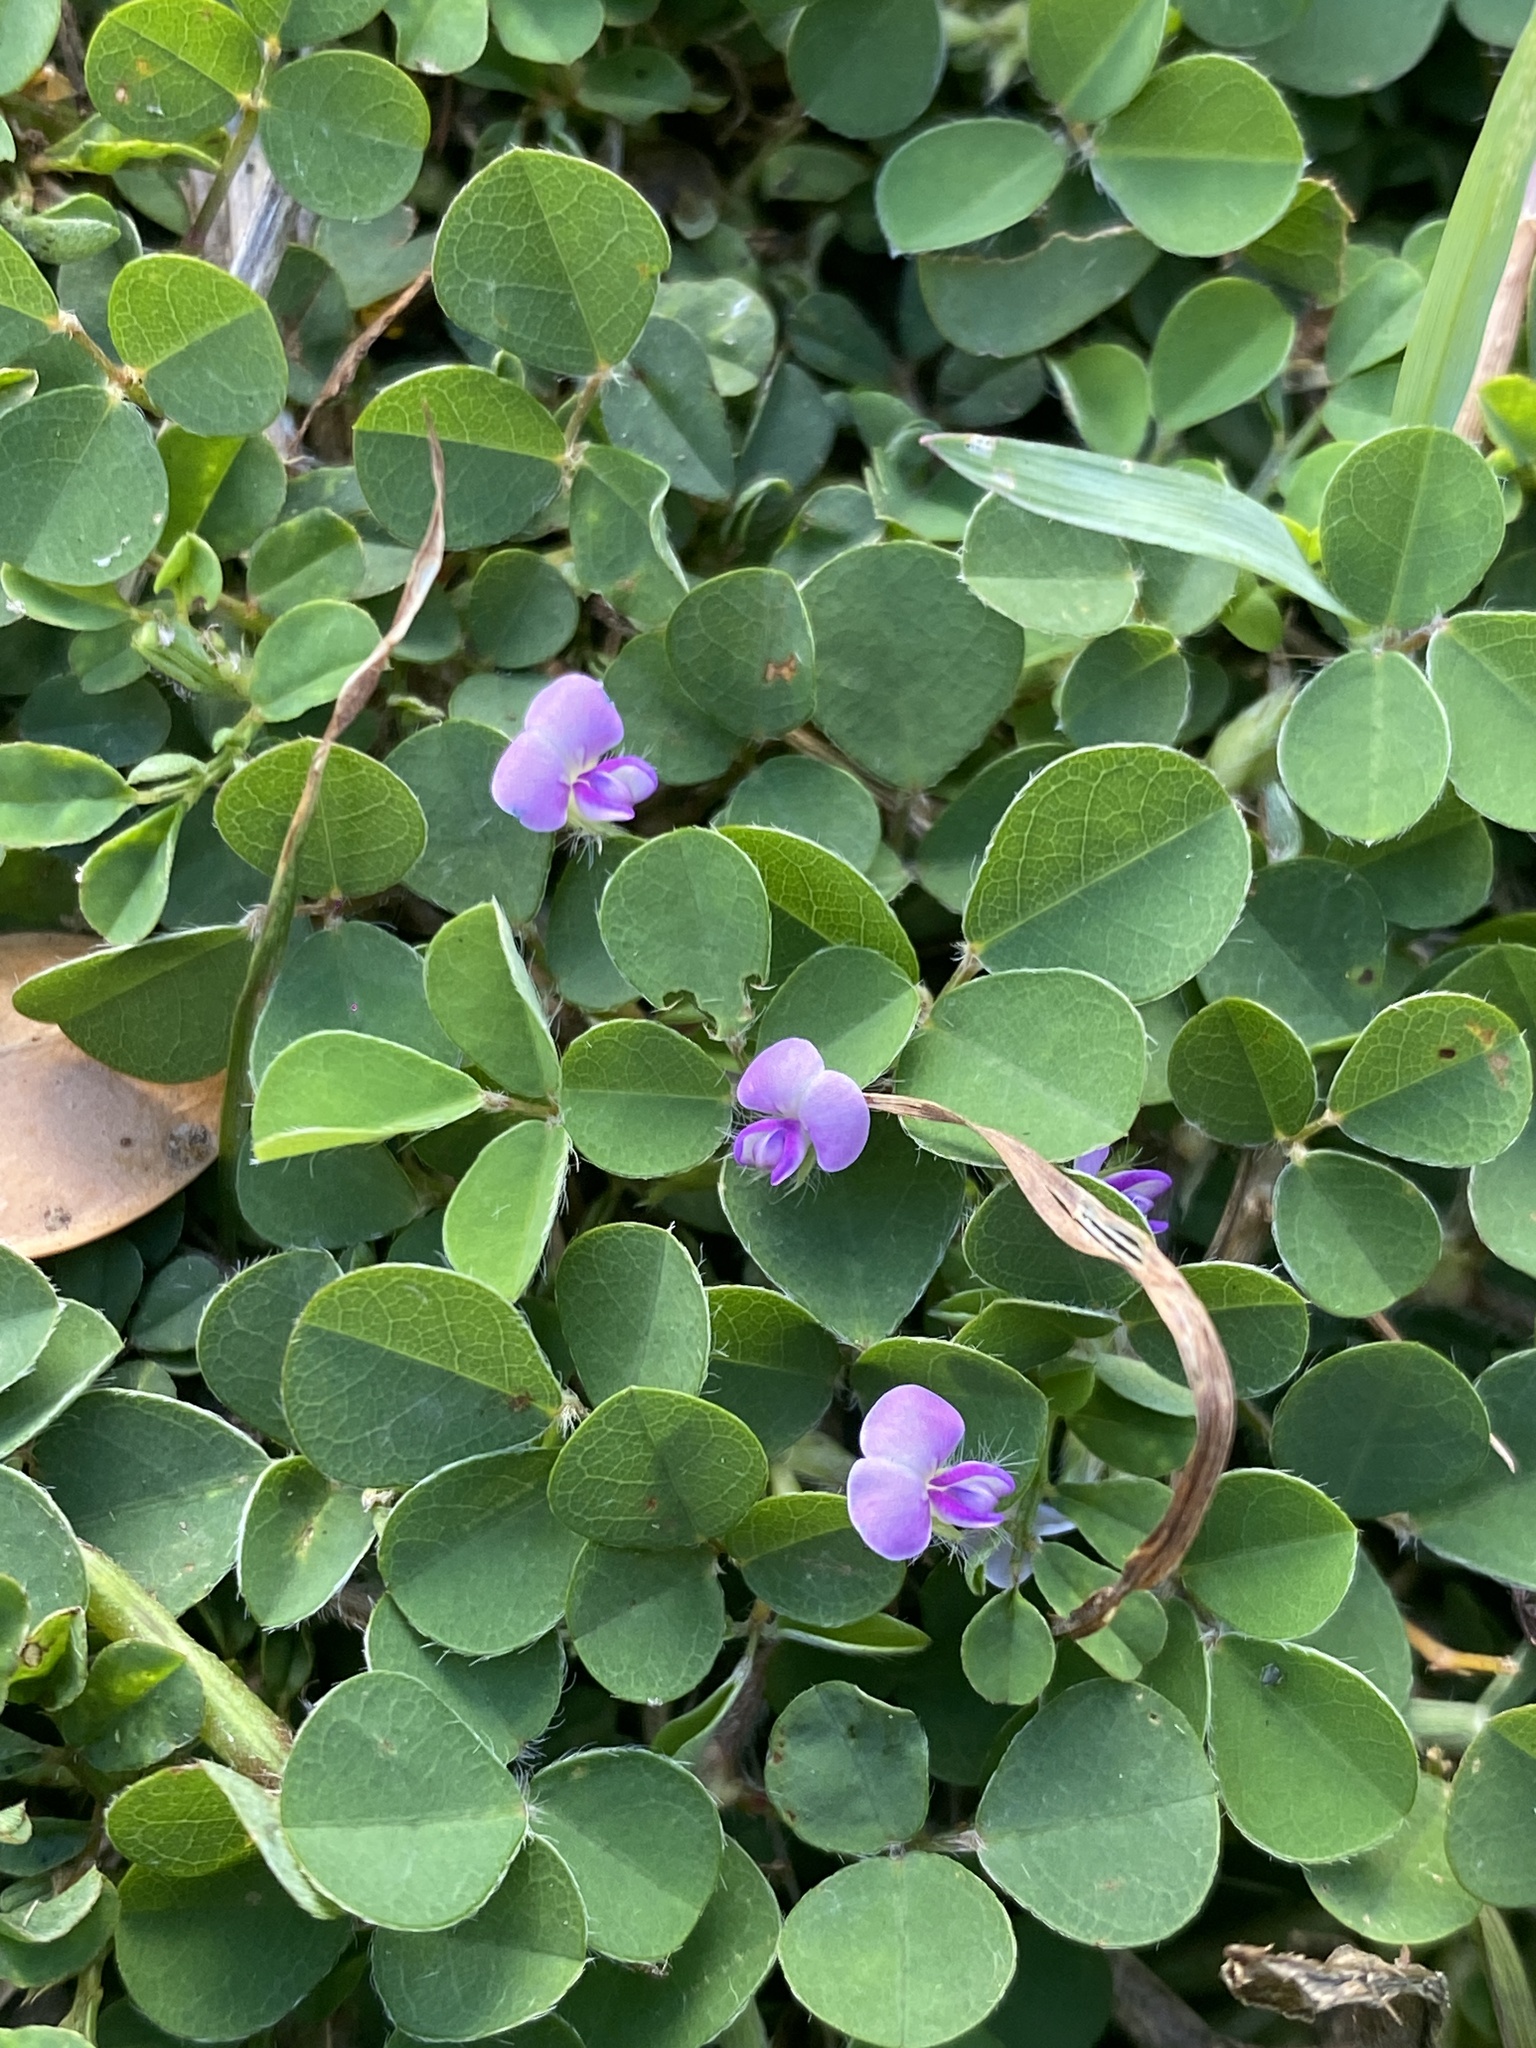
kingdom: Plantae
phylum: Tracheophyta
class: Magnoliopsida
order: Fabales
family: Fabaceae
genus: Grona
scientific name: Grona triflora
